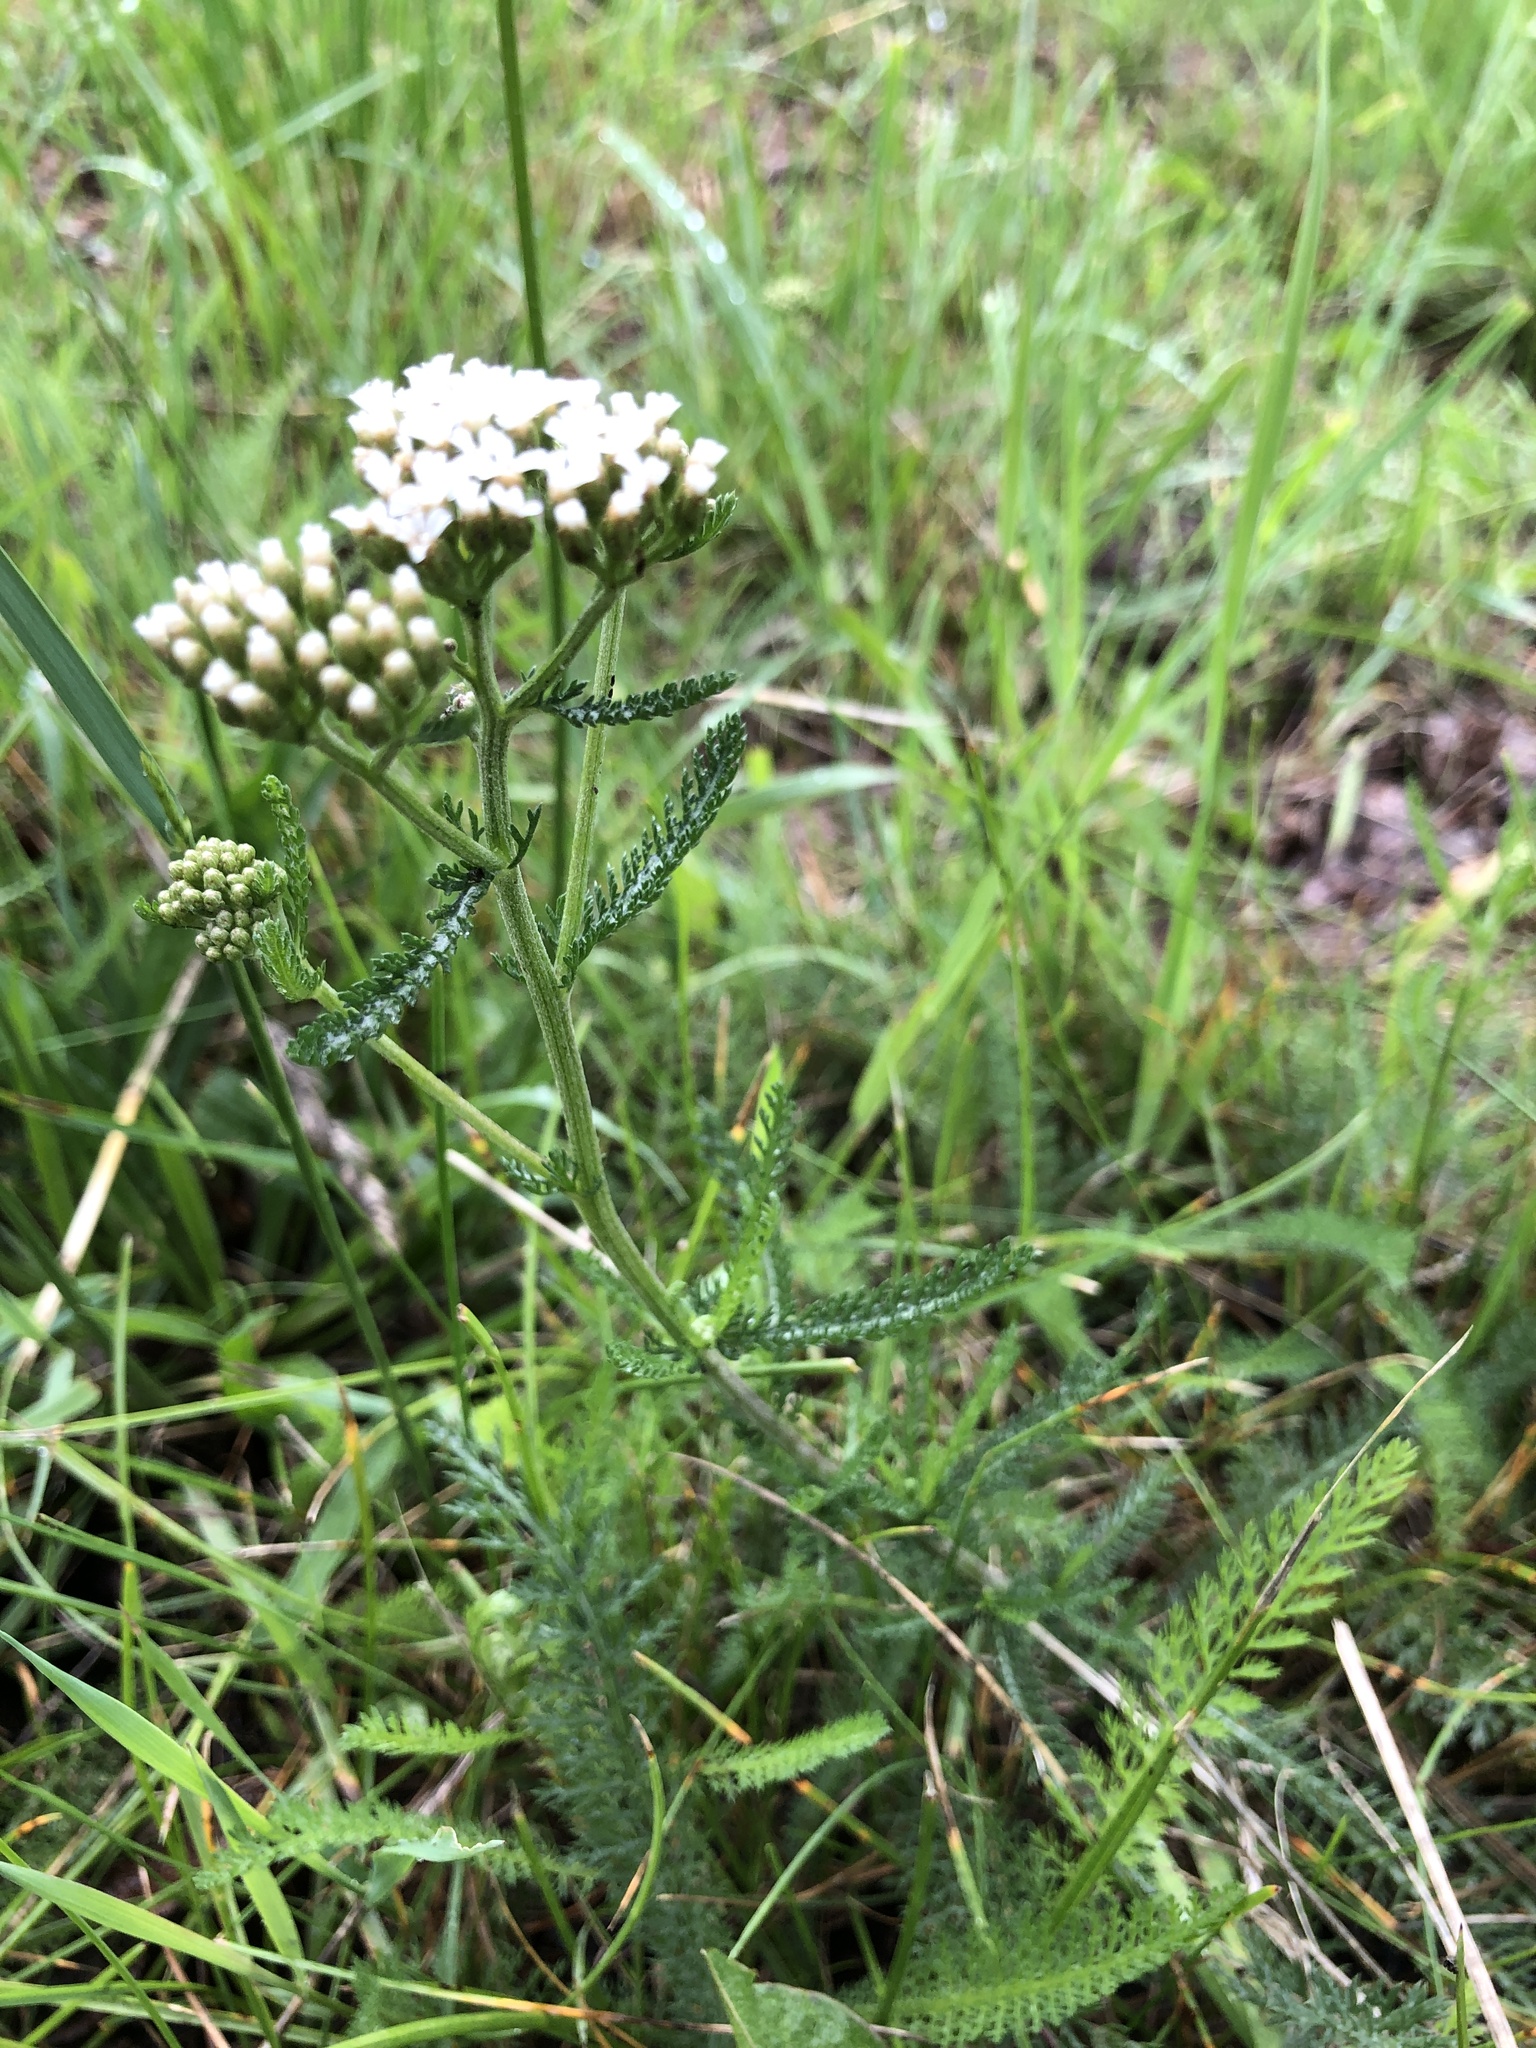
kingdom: Plantae
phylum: Tracheophyta
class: Magnoliopsida
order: Asterales
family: Asteraceae
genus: Achillea
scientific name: Achillea millefolium
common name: Yarrow
